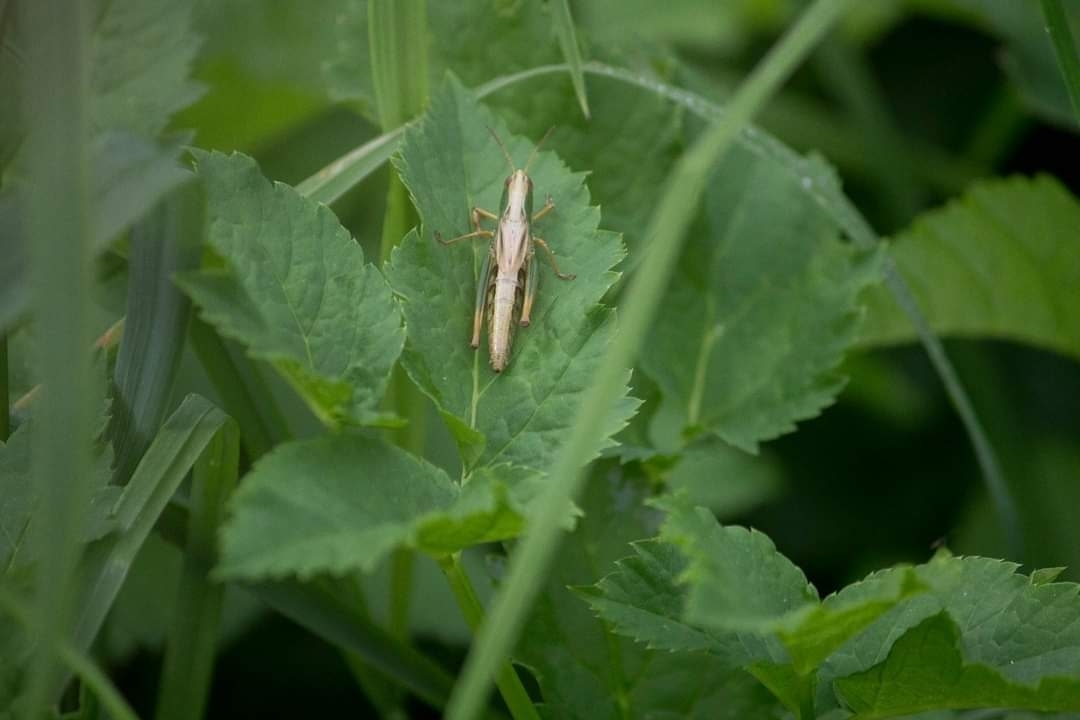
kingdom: Animalia
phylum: Arthropoda
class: Insecta
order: Orthoptera
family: Acrididae
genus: Pseudochorthippus
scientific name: Pseudochorthippus parallelus
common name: Meadow grasshopper
